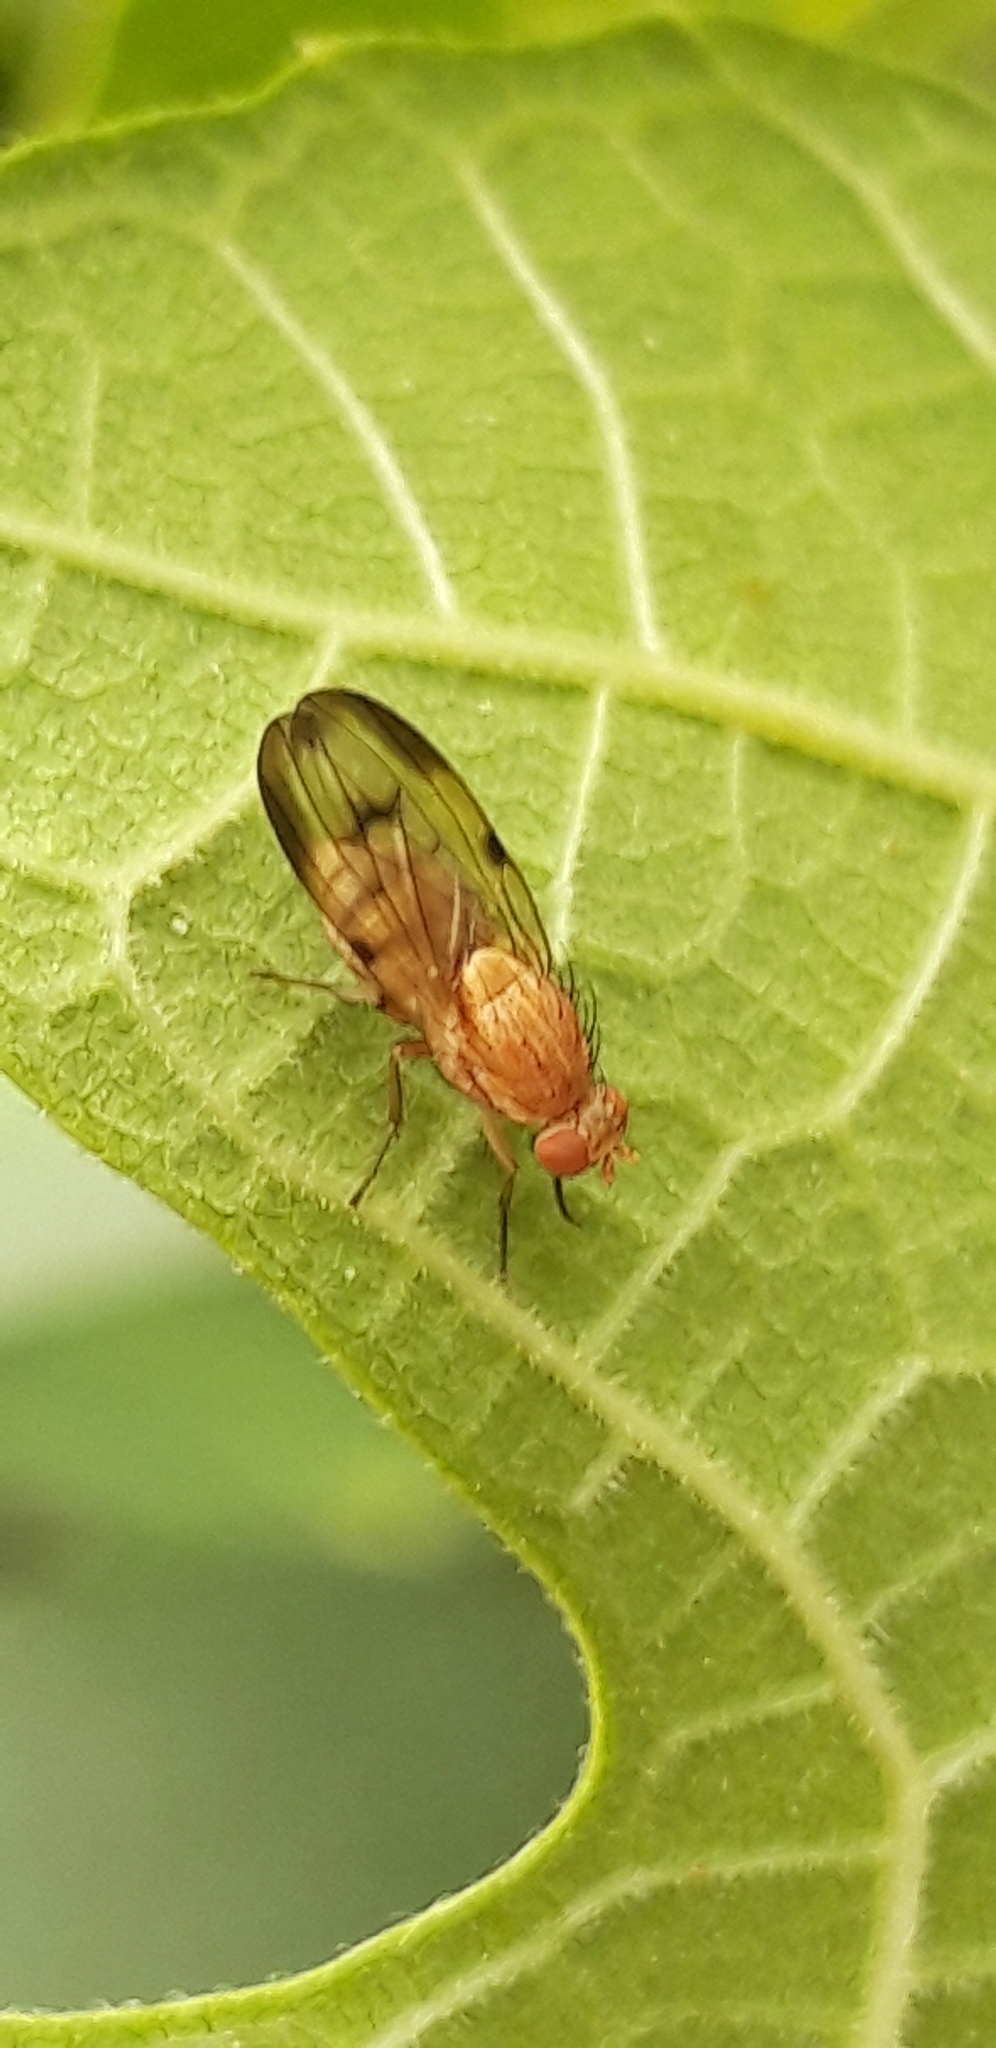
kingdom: Animalia
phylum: Arthropoda
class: Insecta
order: Diptera
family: Lauxaniidae
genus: Minettia
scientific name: Minettia inusta
